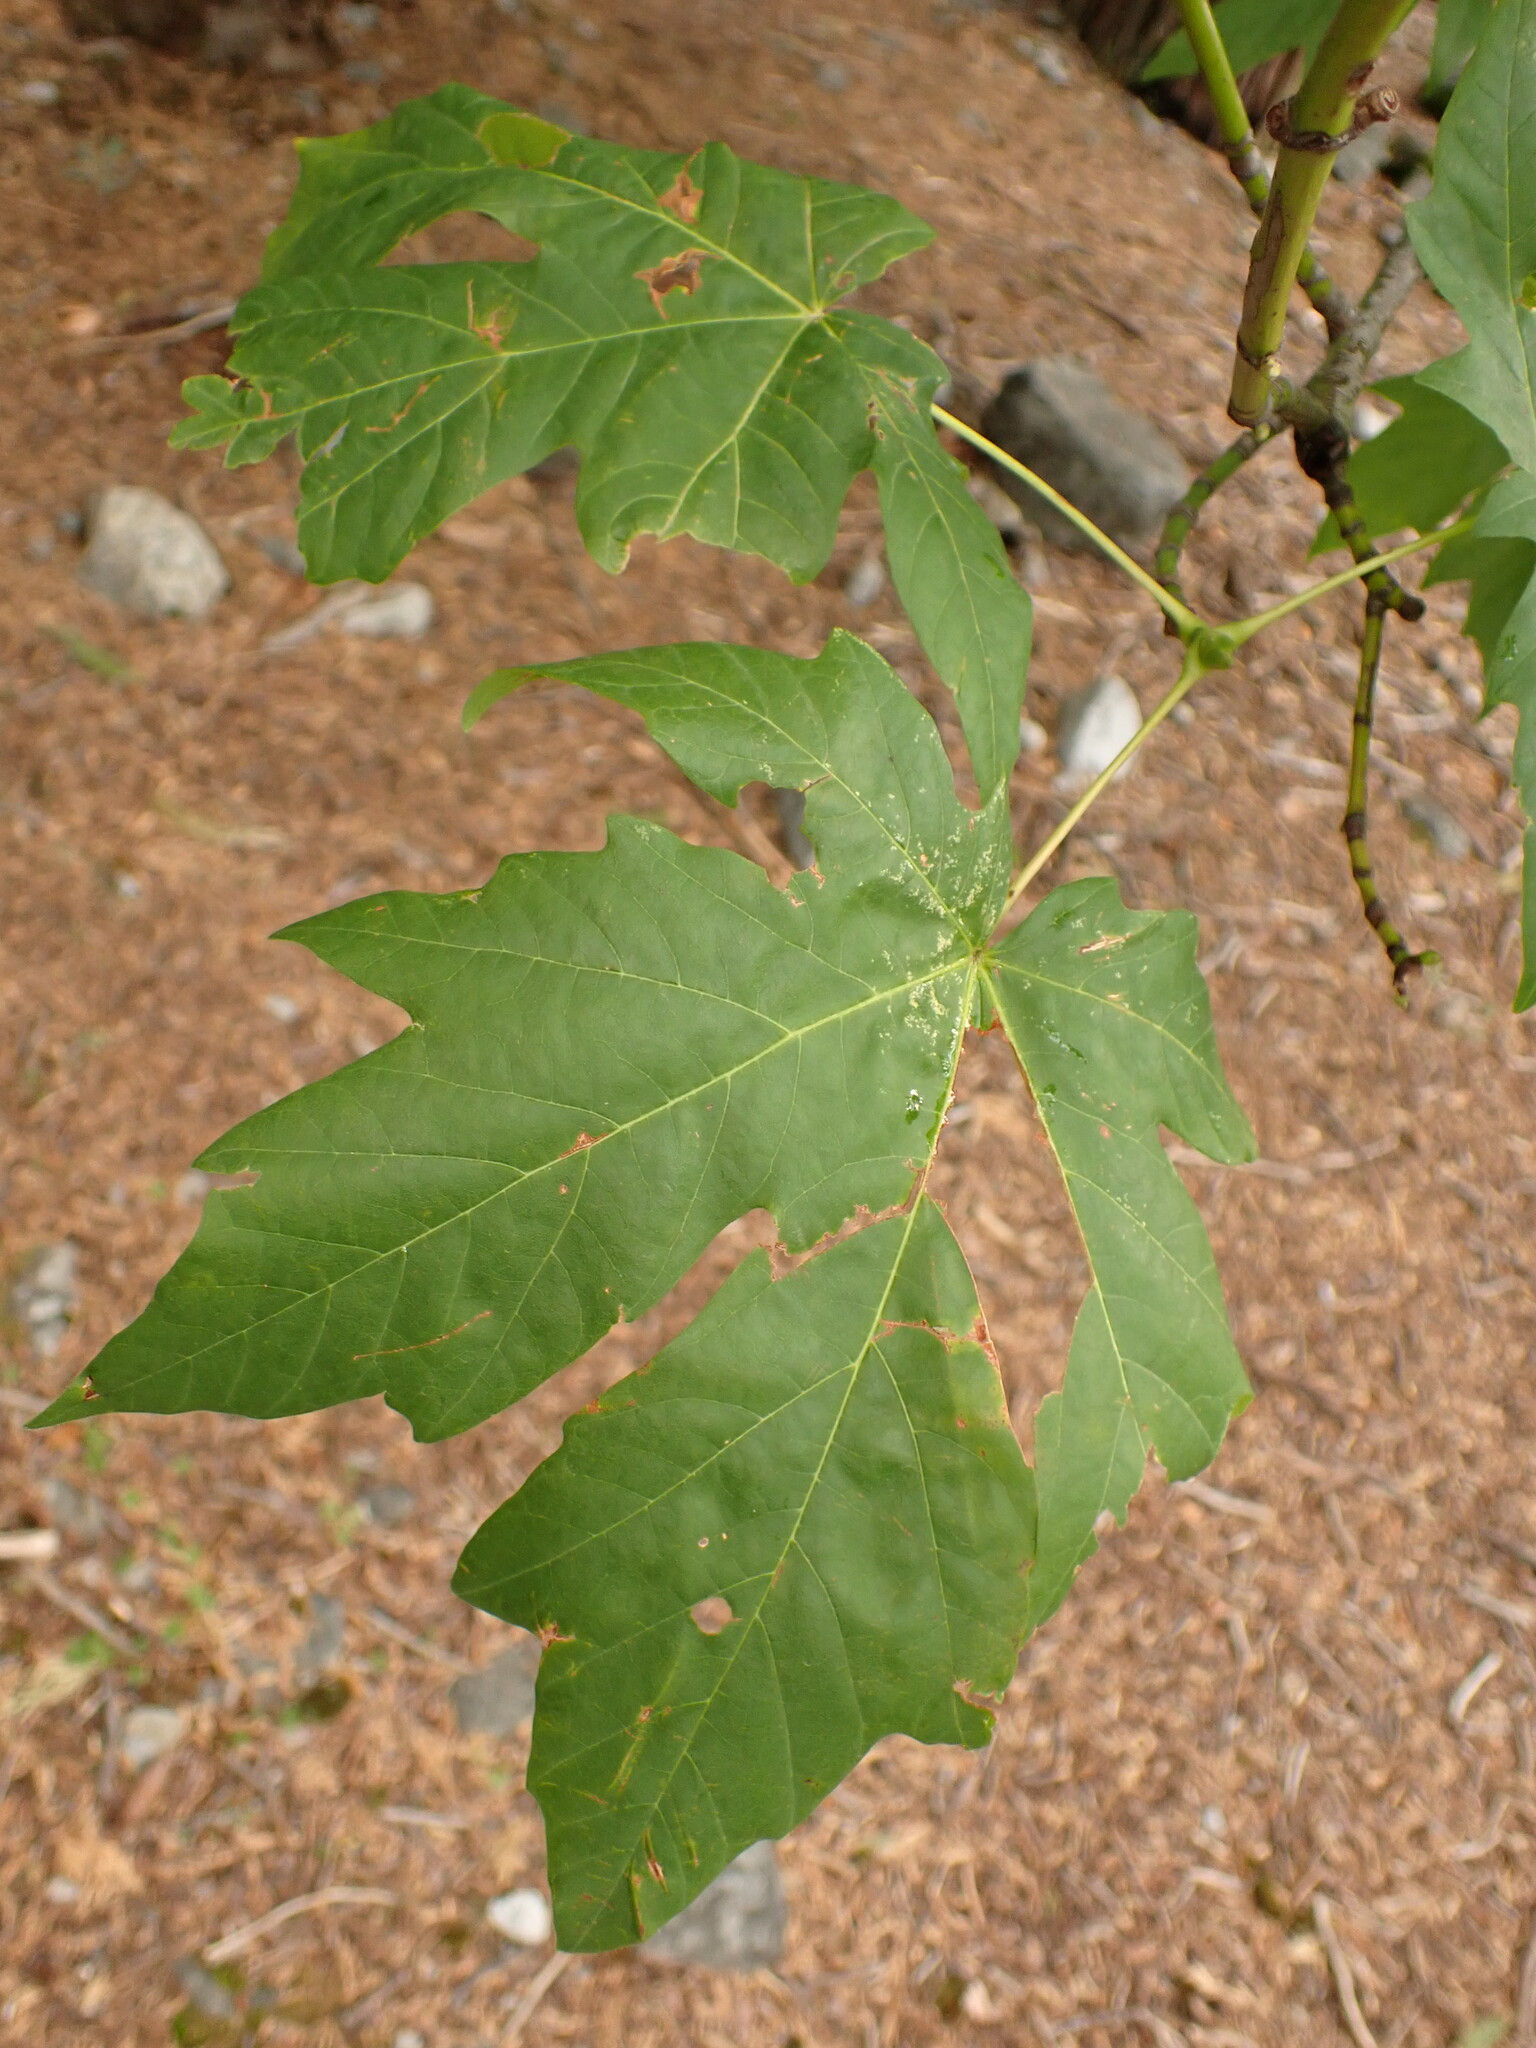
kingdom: Plantae
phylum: Tracheophyta
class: Magnoliopsida
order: Sapindales
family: Sapindaceae
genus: Acer
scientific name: Acer macrophyllum
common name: Oregon maple
